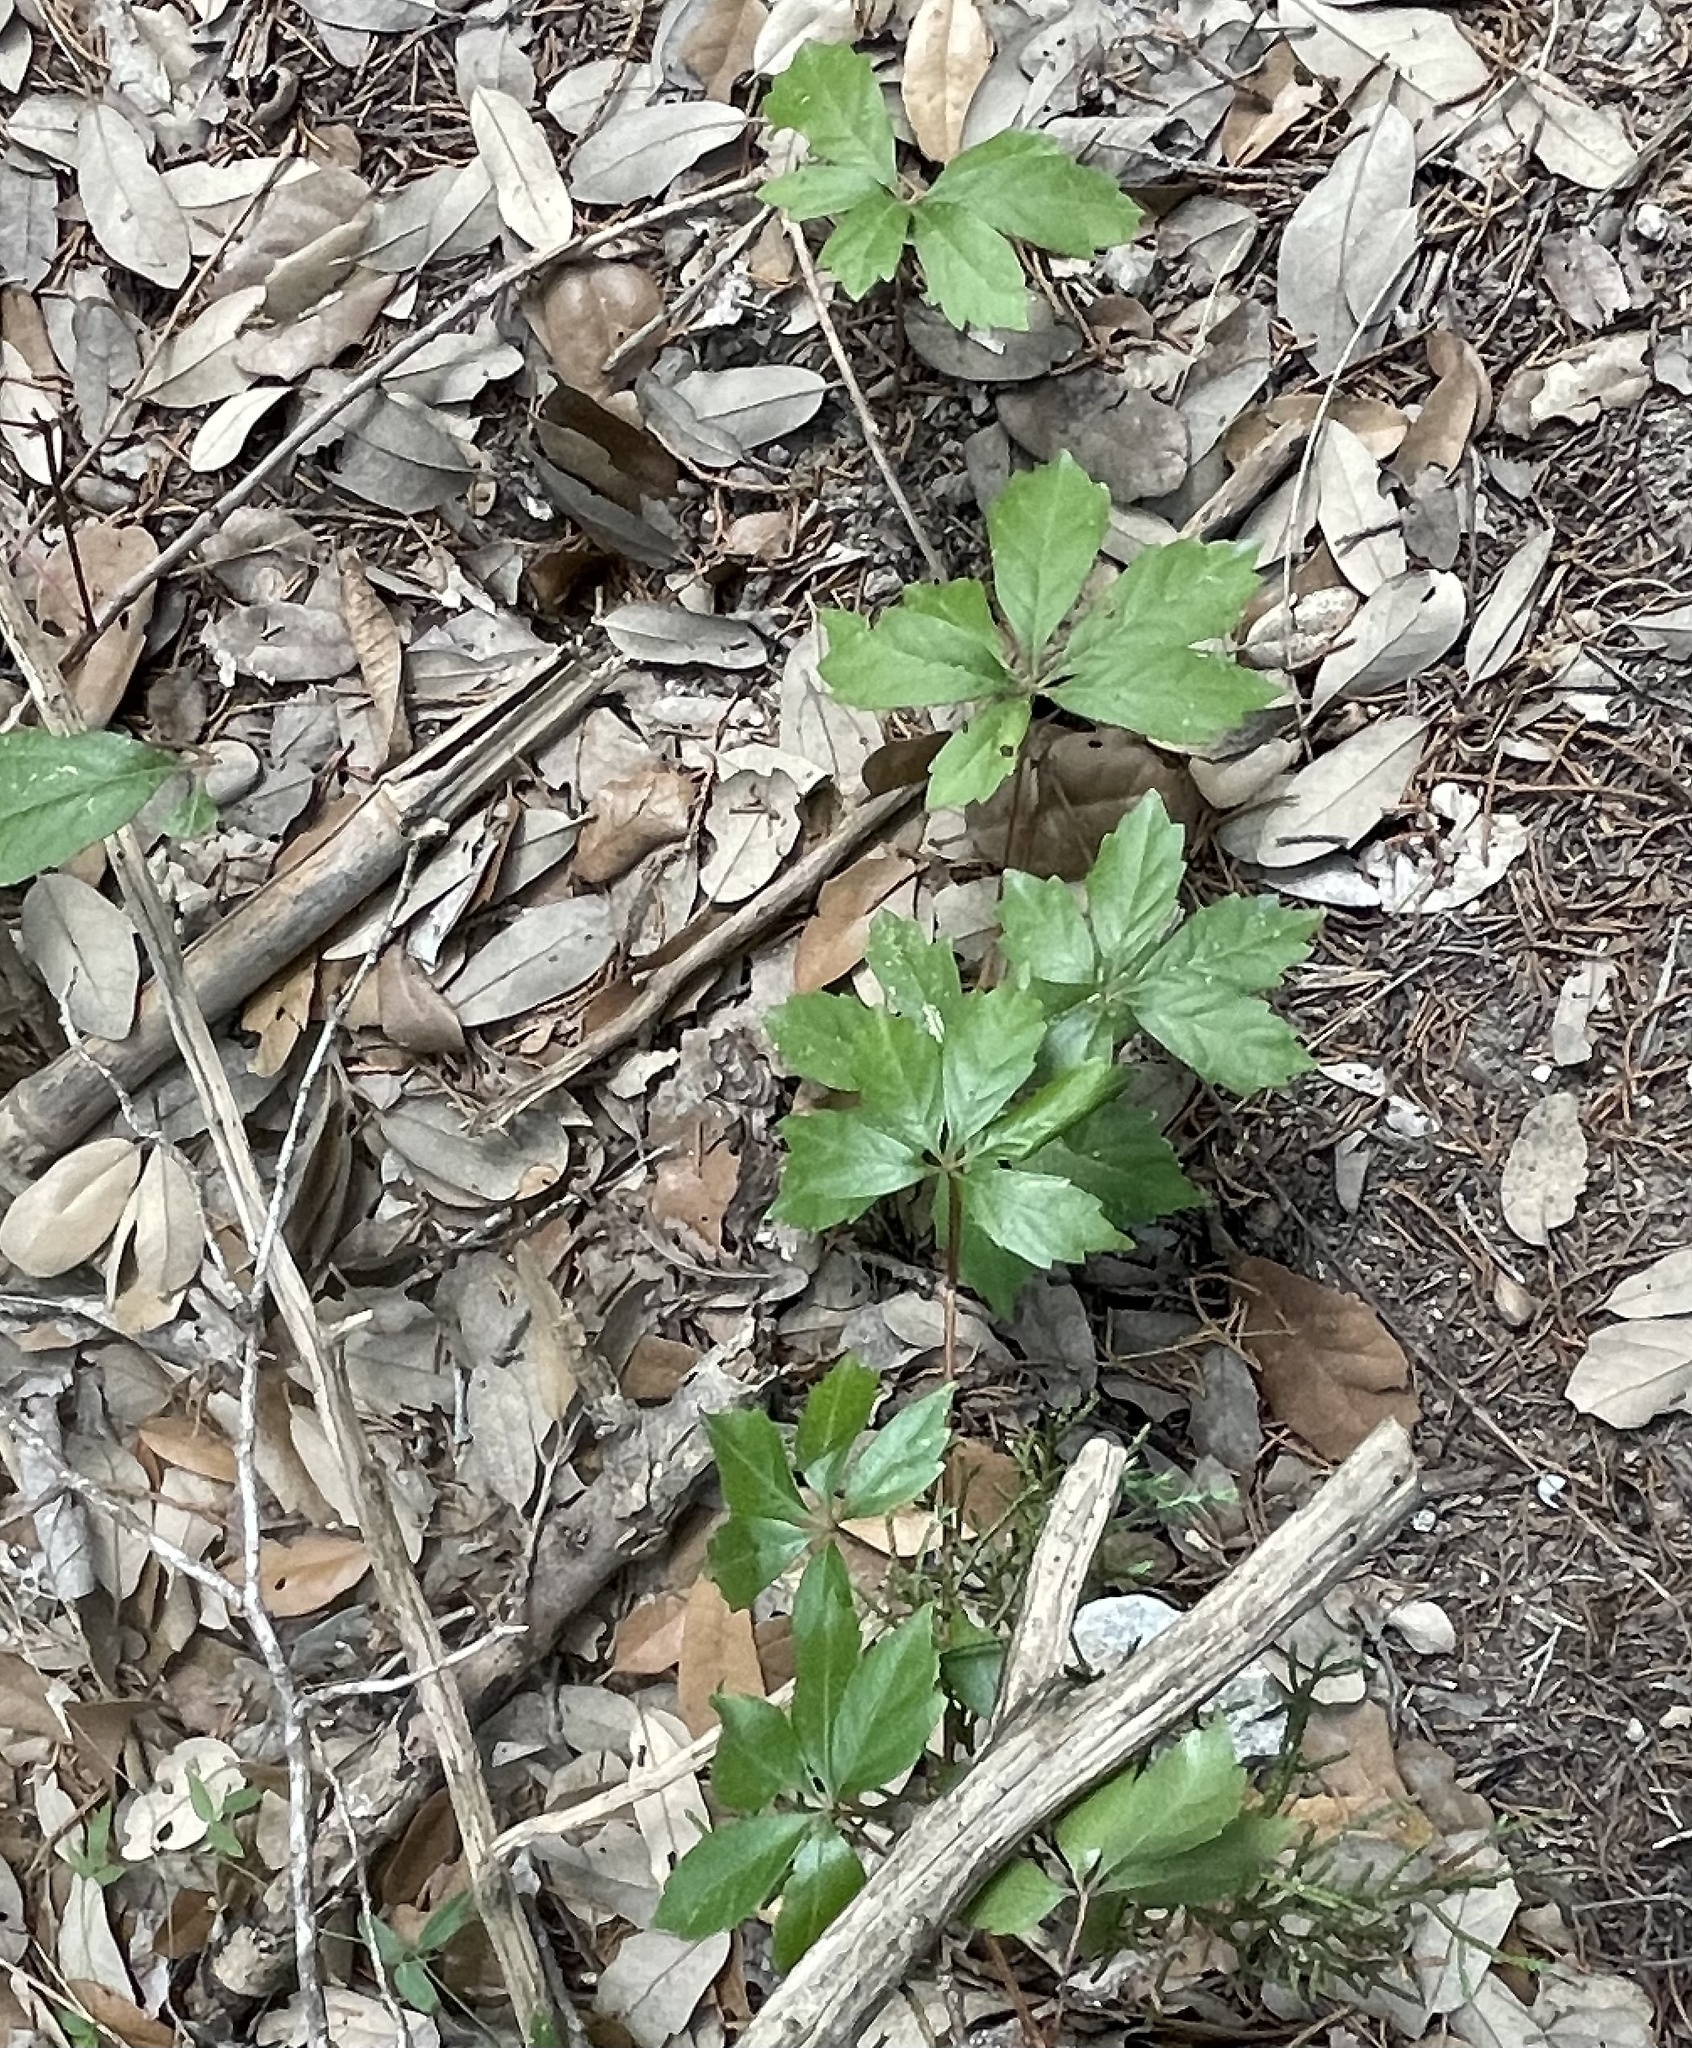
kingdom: Plantae
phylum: Tracheophyta
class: Magnoliopsida
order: Vitales
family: Vitaceae
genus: Parthenocissus
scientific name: Parthenocissus quinquefolia
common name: Virginia-creeper
